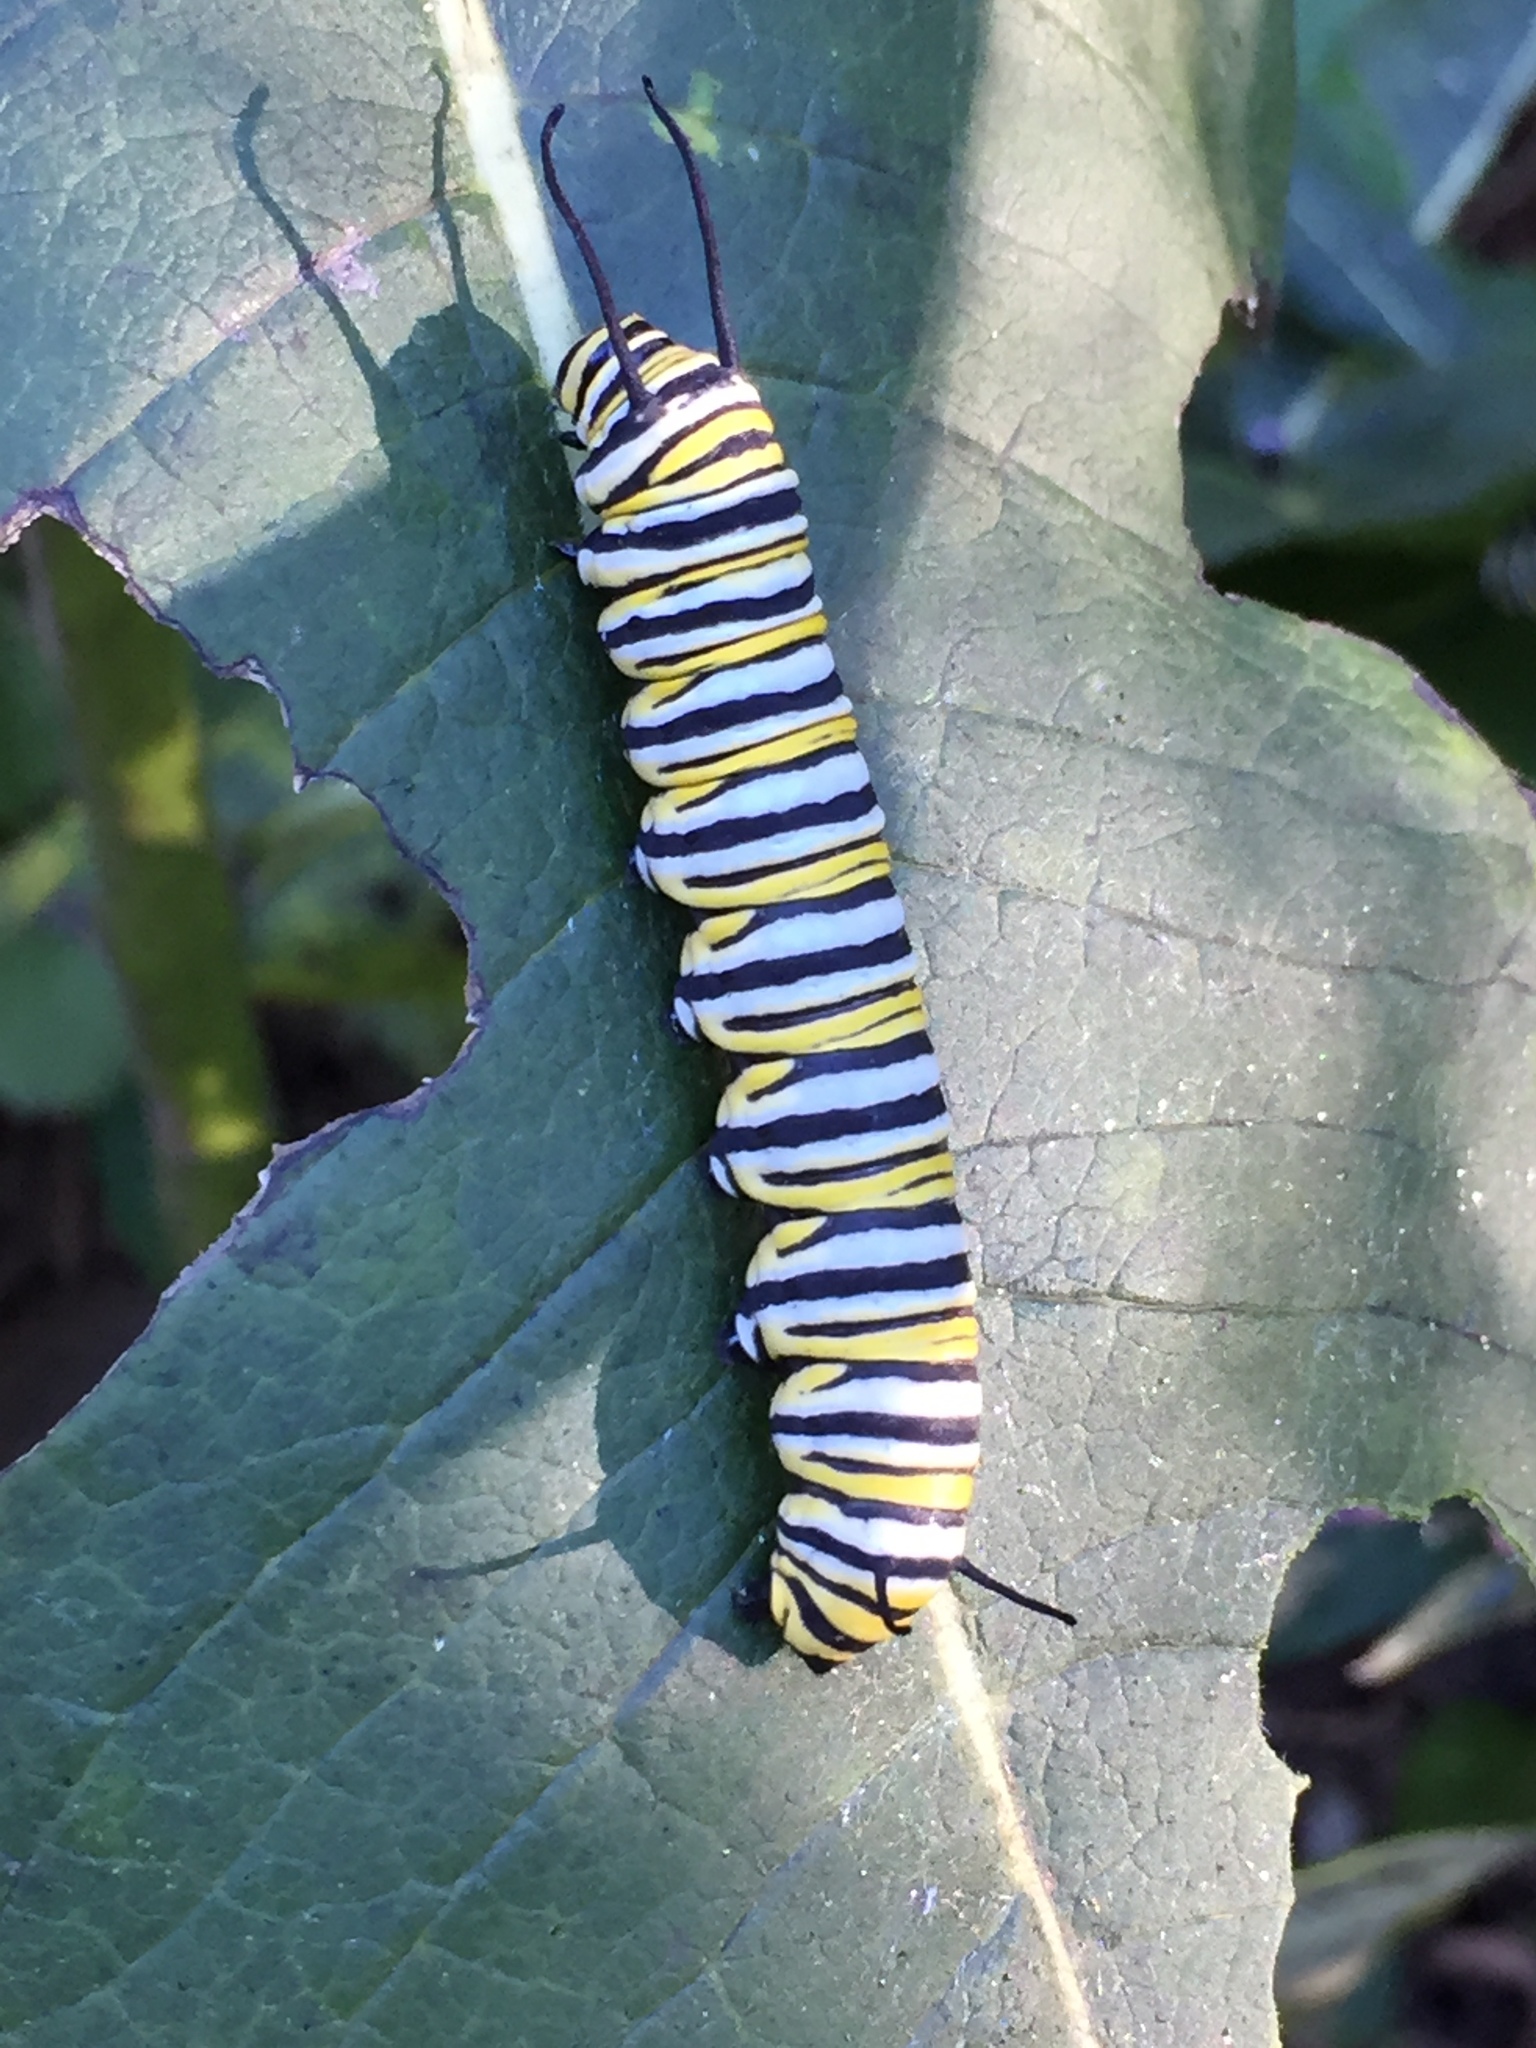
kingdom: Animalia
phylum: Arthropoda
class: Insecta
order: Lepidoptera
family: Nymphalidae
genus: Danaus
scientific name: Danaus plexippus
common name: Monarch
